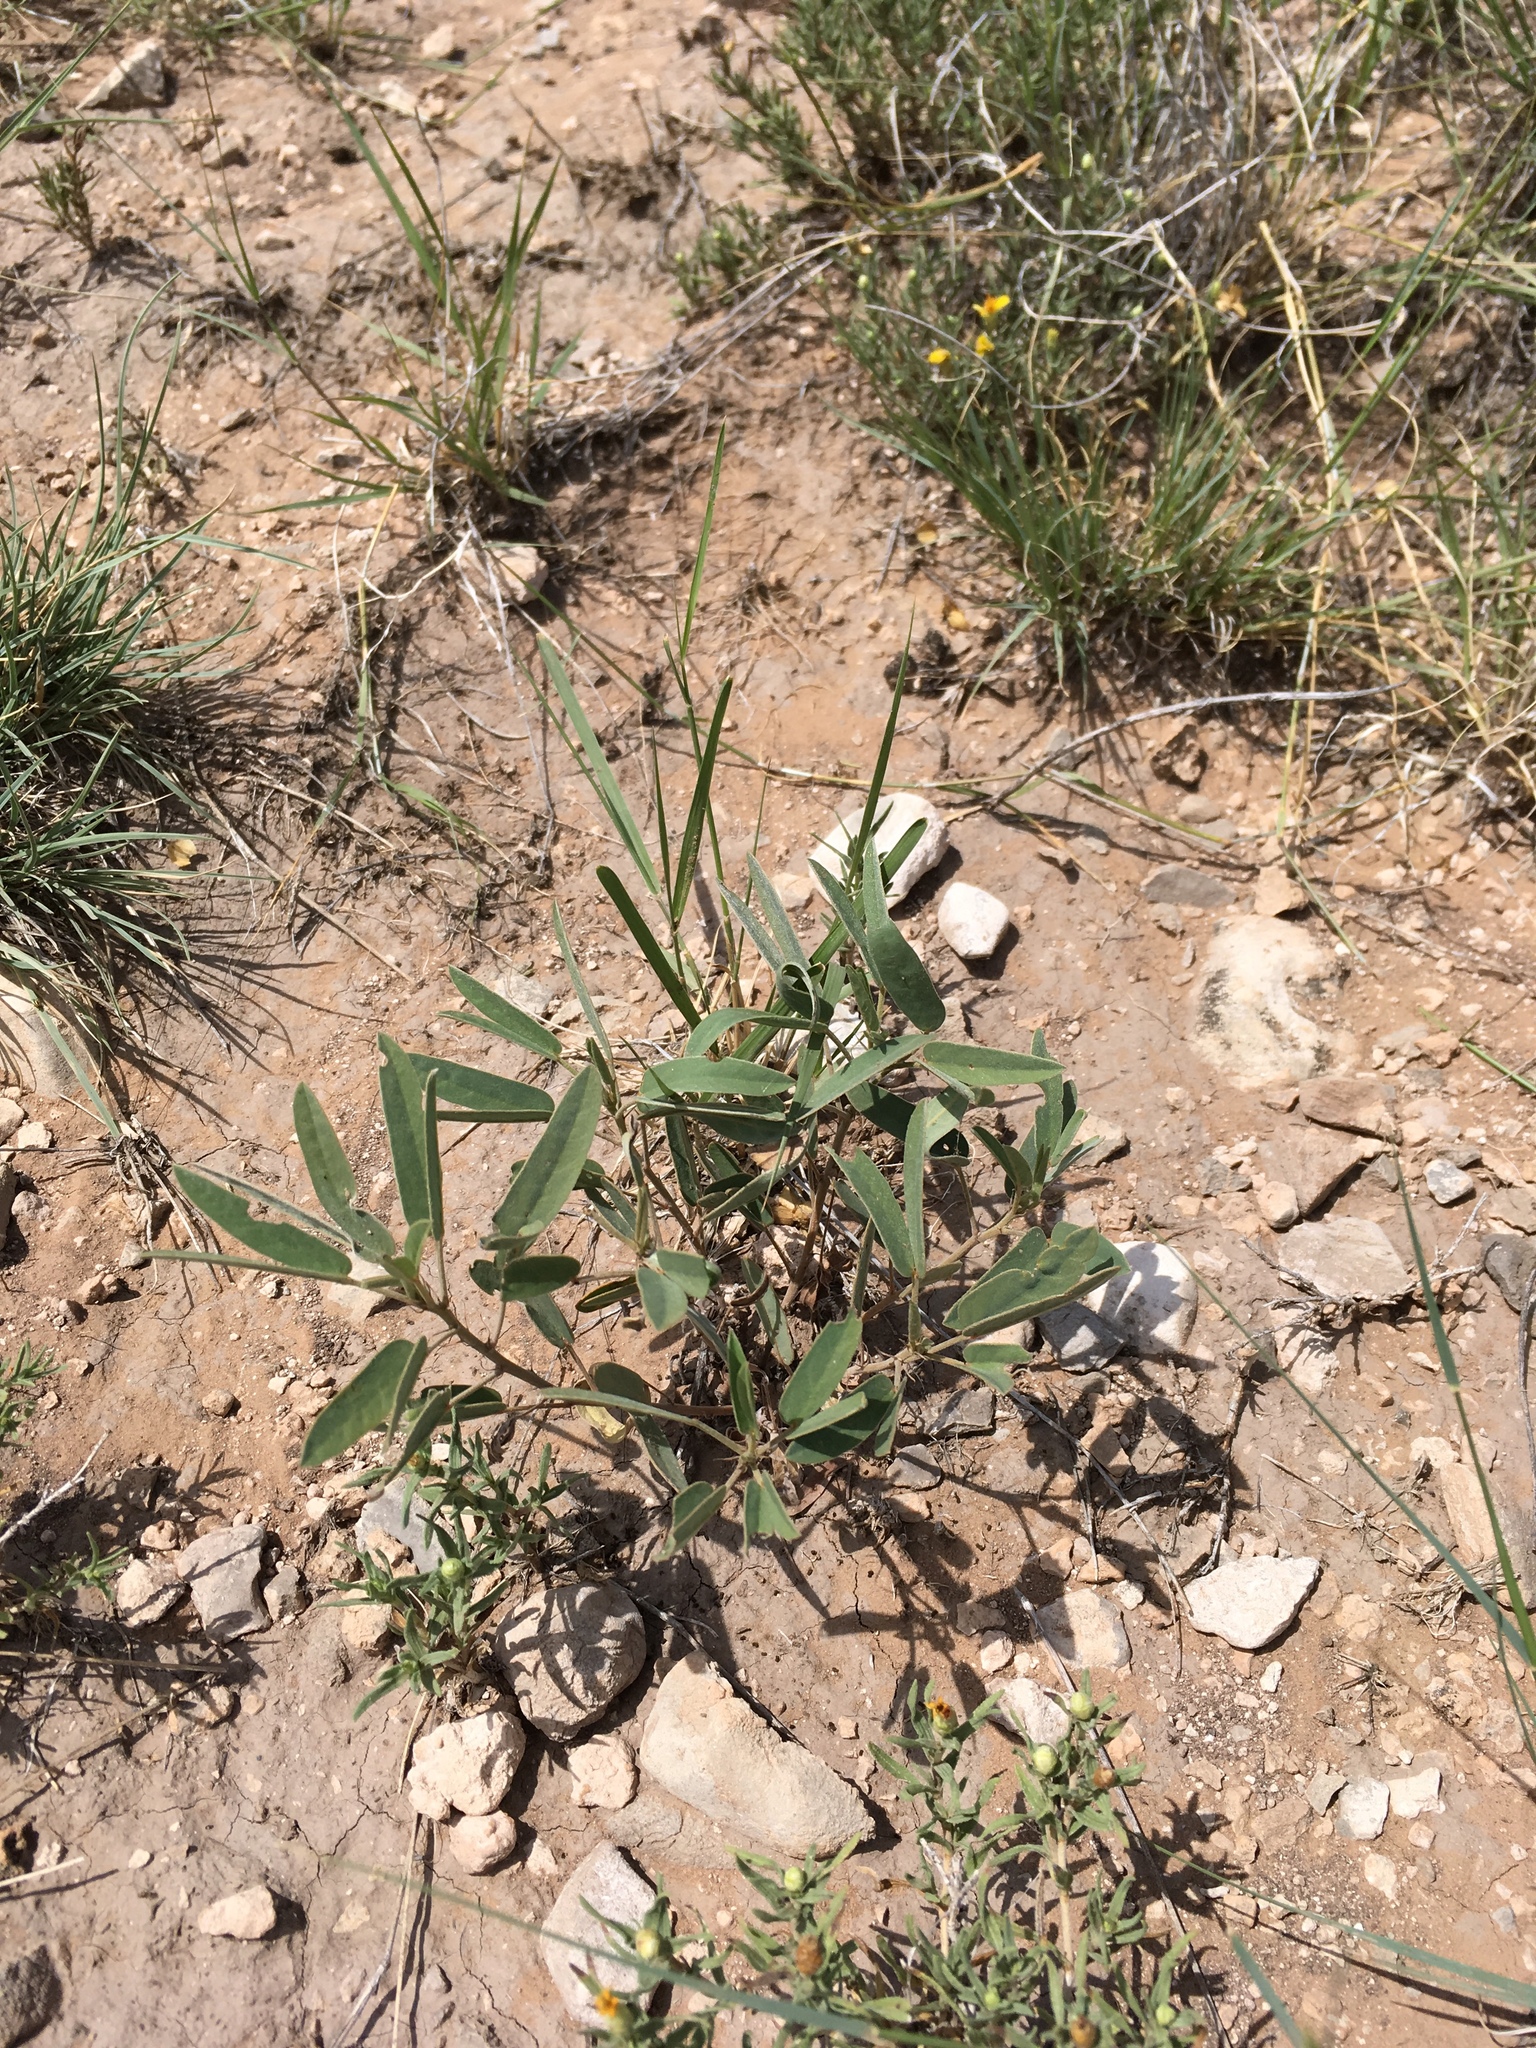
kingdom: Plantae
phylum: Tracheophyta
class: Magnoliopsida
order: Fabales
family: Fabaceae
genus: Senna
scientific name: Senna roemeriana
